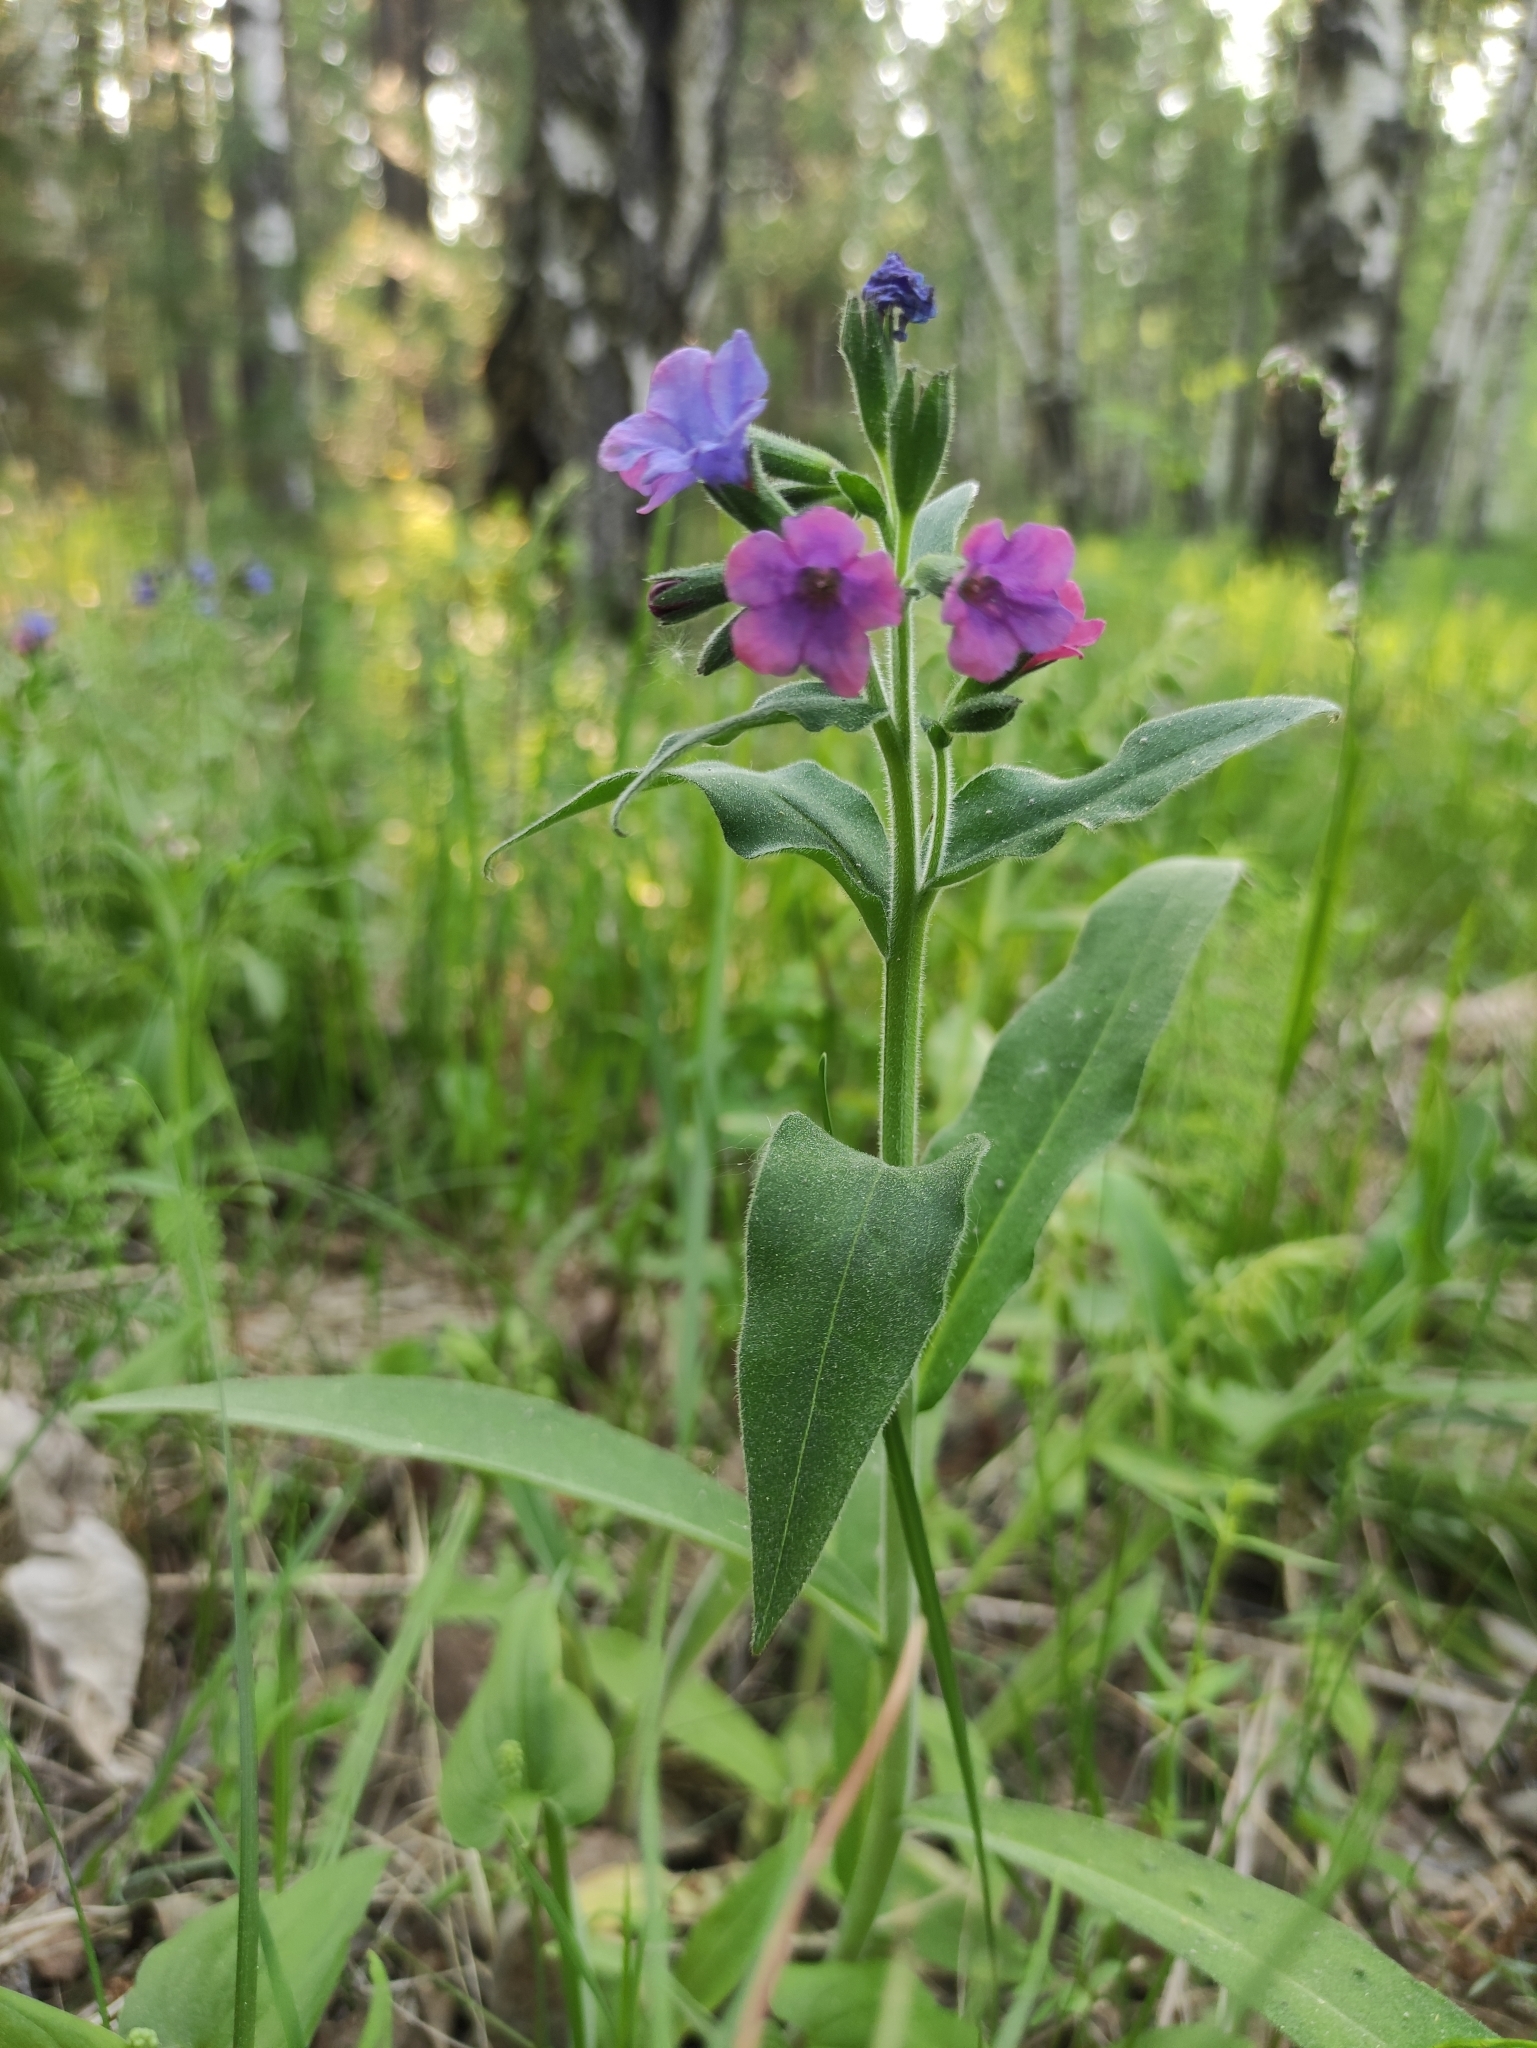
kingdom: Plantae
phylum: Tracheophyta
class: Magnoliopsida
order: Boraginales
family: Boraginaceae
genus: Pulmonaria
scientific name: Pulmonaria mollis
